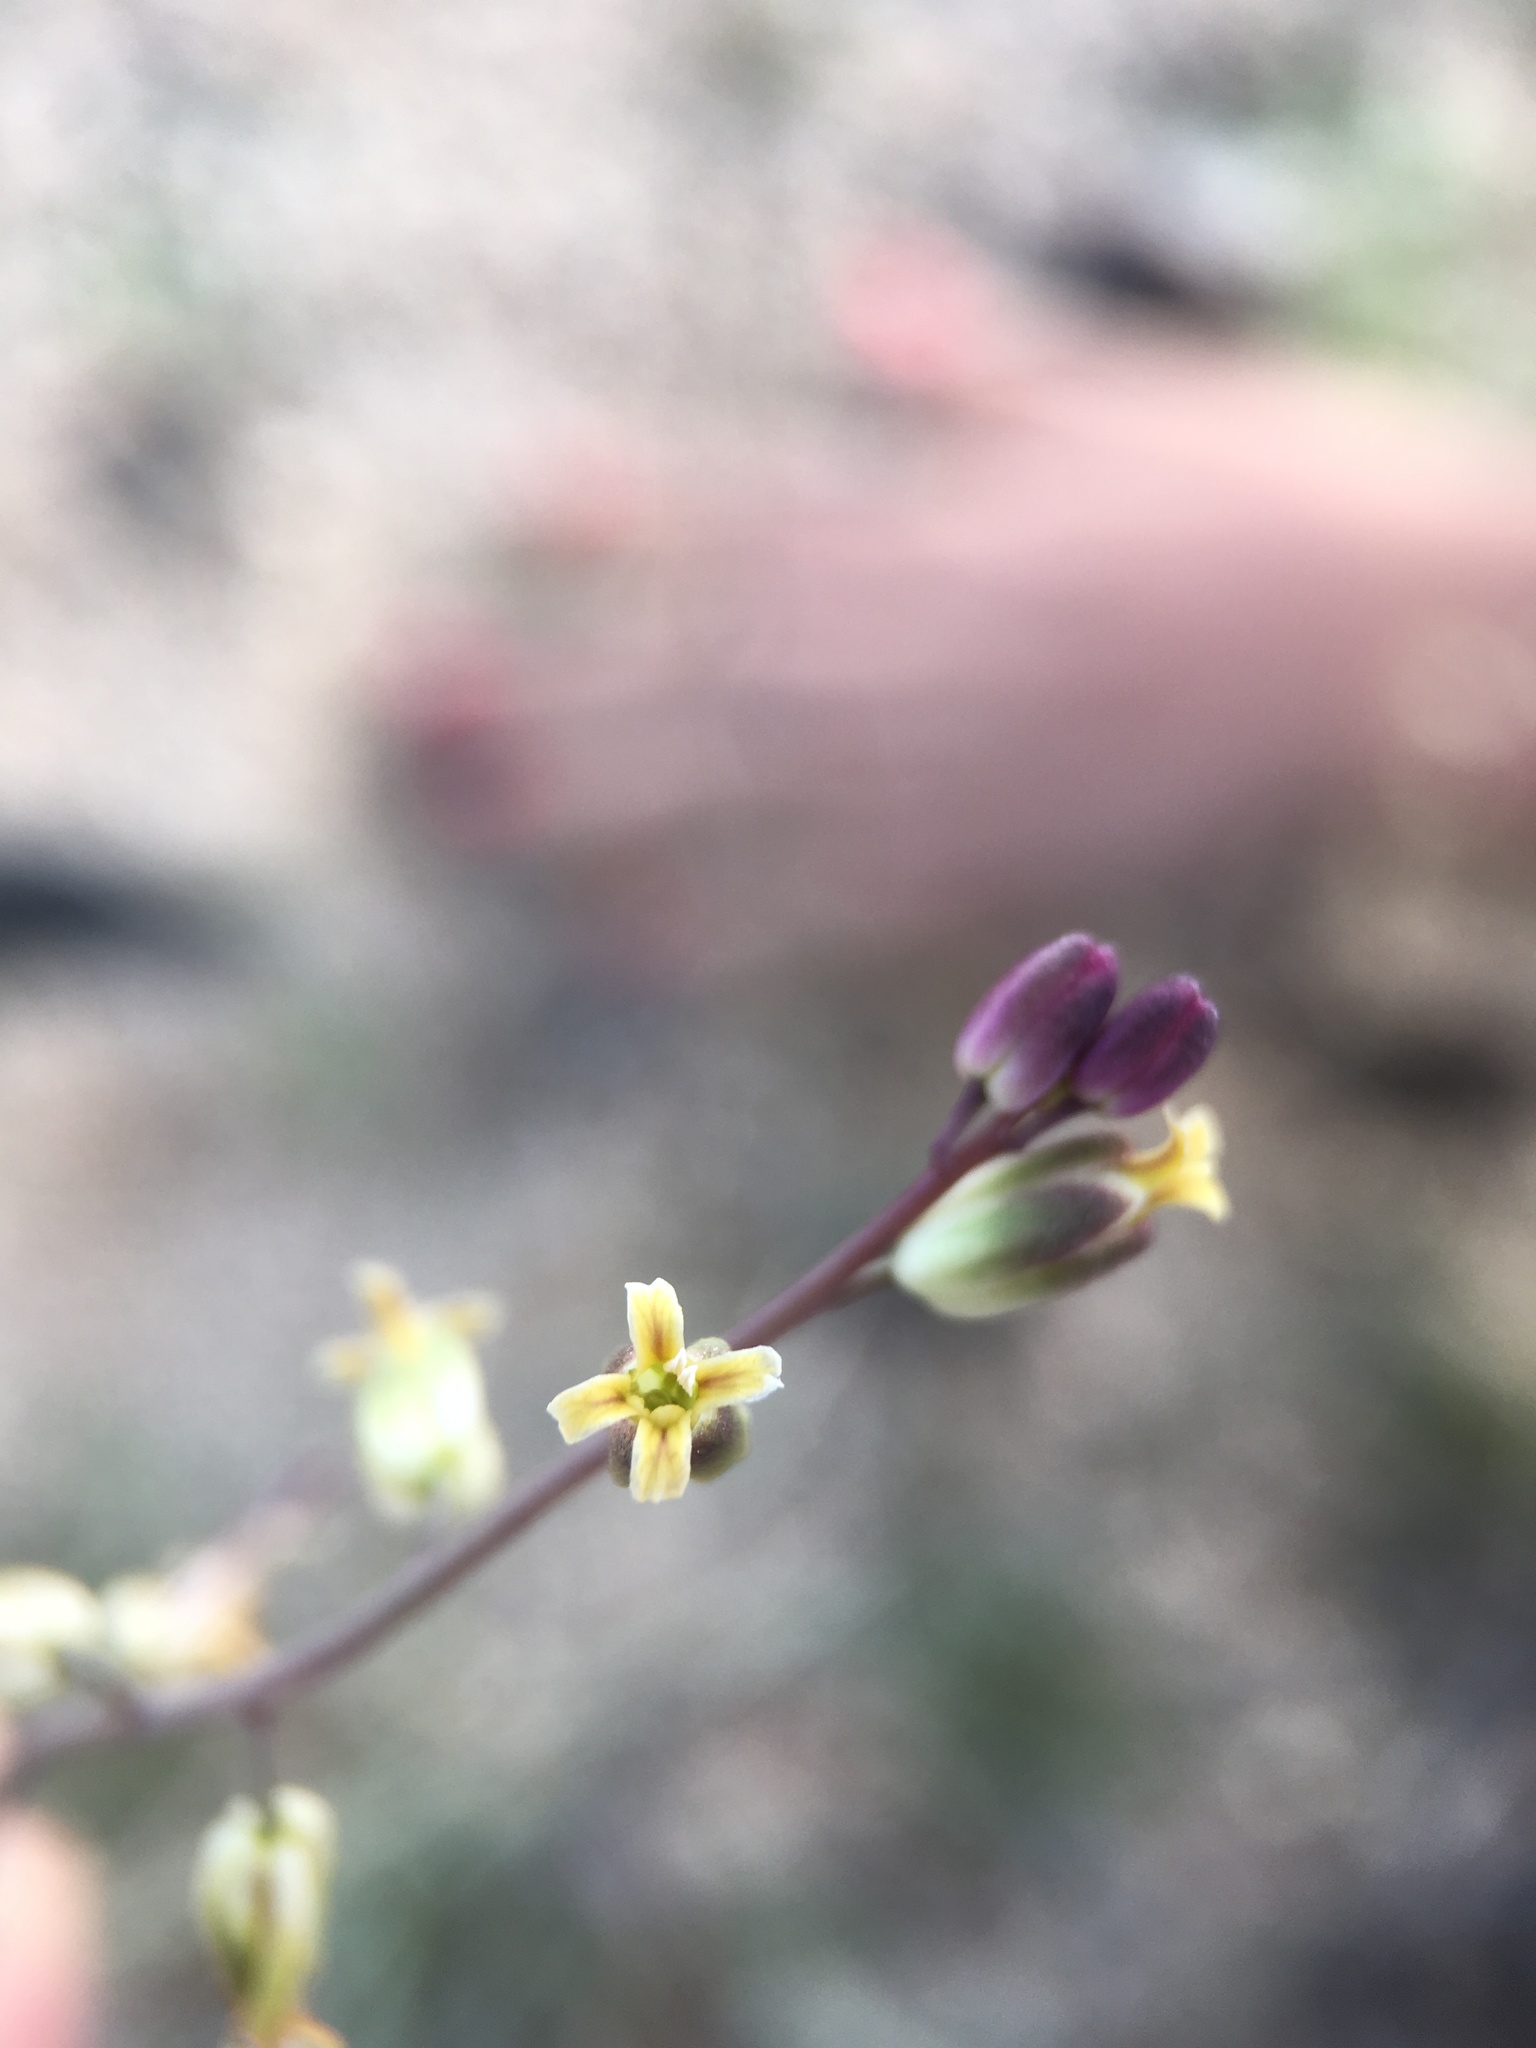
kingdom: Plantae
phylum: Tracheophyta
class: Magnoliopsida
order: Brassicales
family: Brassicaceae
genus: Streptanthus
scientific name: Streptanthus longirostris
